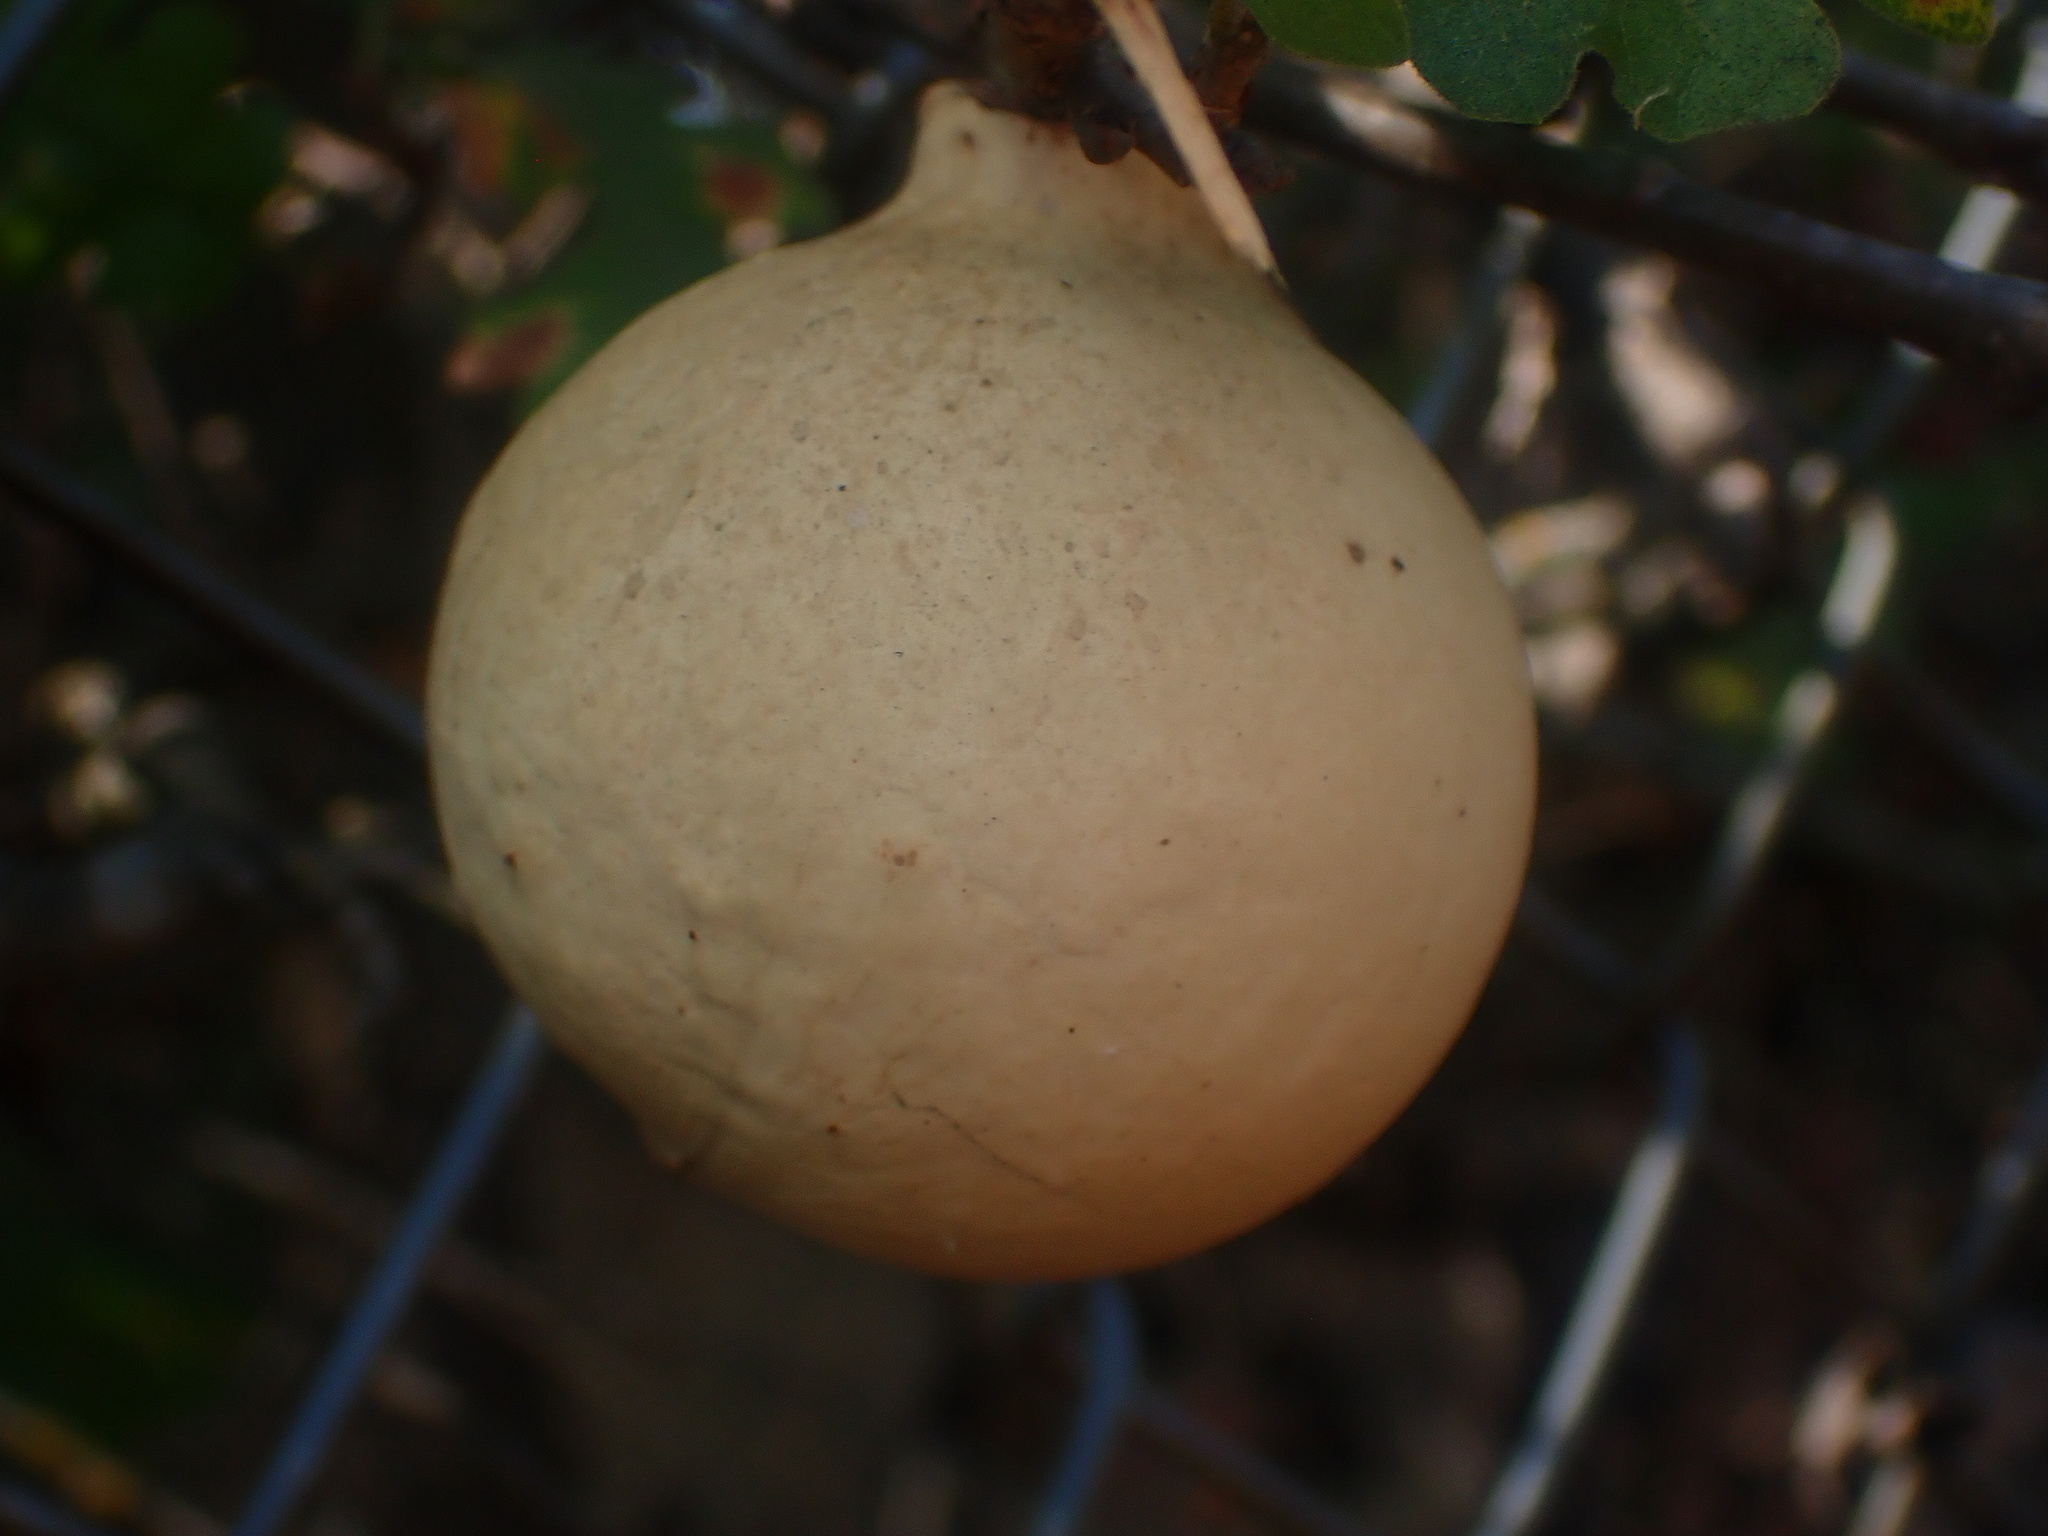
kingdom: Animalia
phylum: Arthropoda
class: Insecta
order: Hymenoptera
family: Cynipidae
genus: Andricus
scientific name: Andricus quercuscalifornicus
